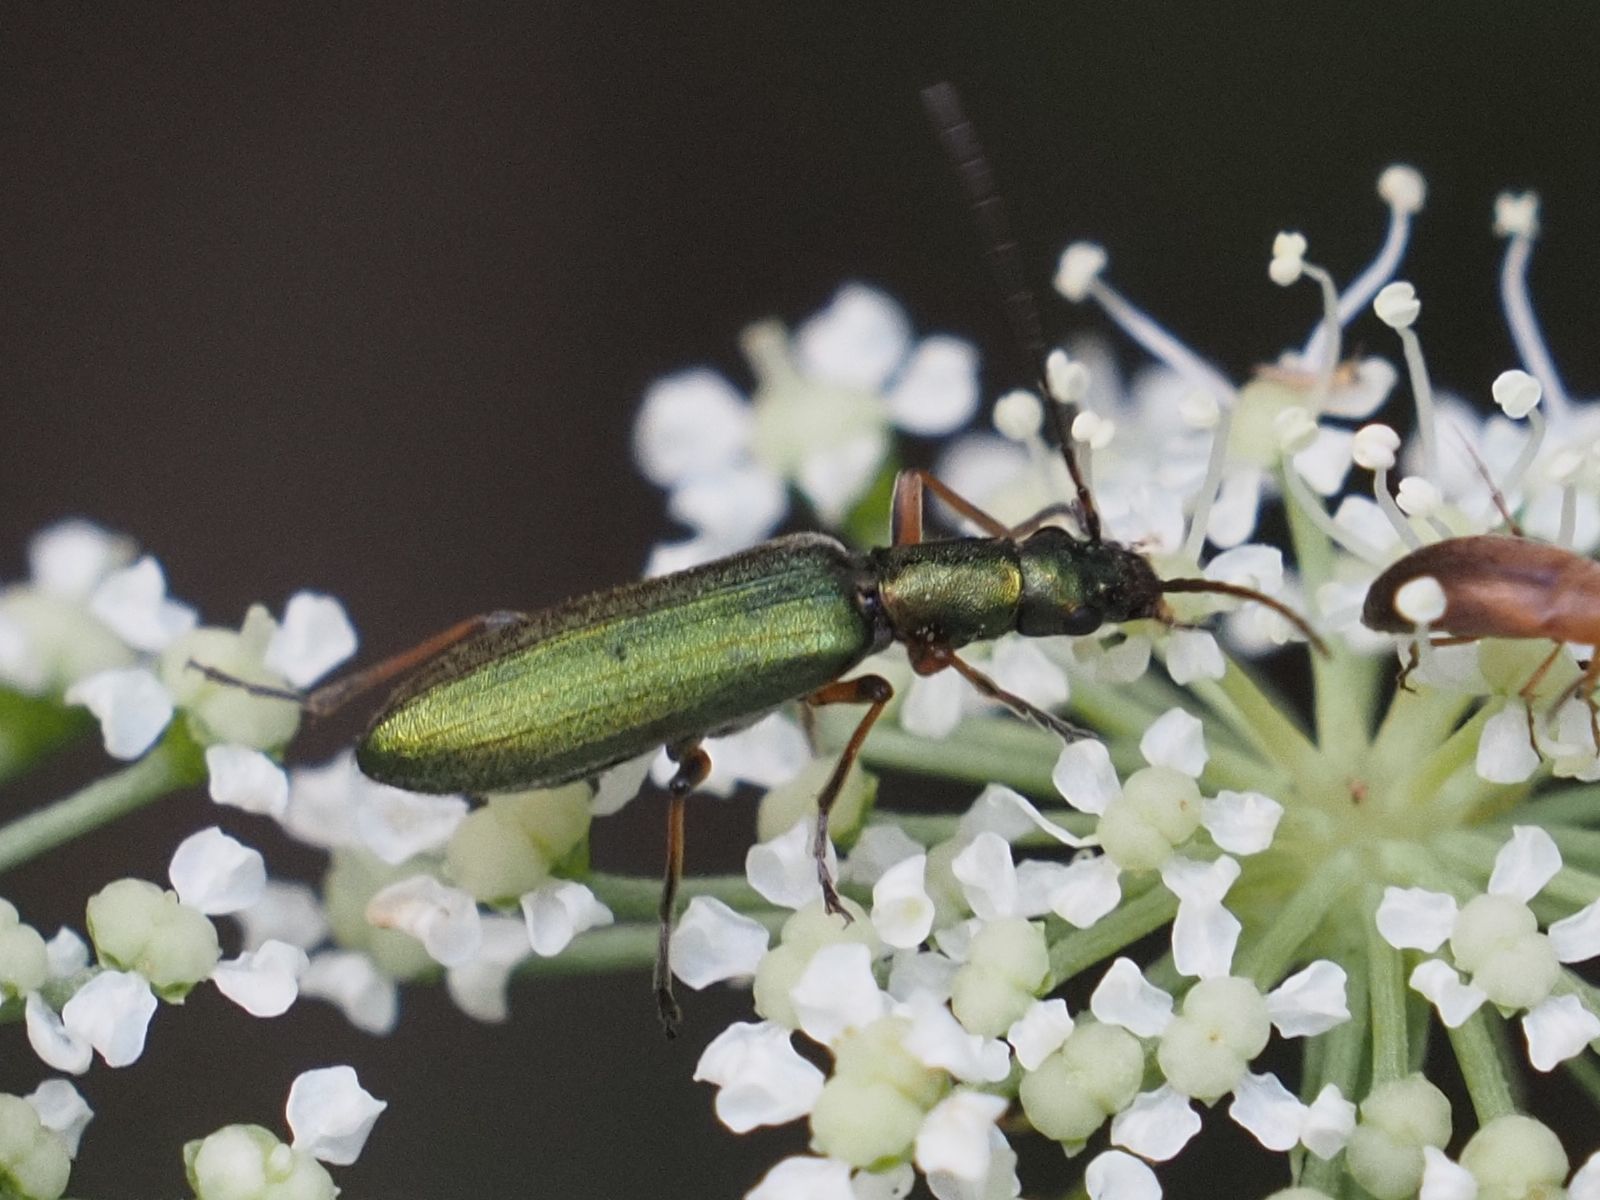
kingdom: Animalia
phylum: Arthropoda
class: Insecta
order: Coleoptera
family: Oedemeridae
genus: Chrysanthia
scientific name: Chrysanthia geniculata
